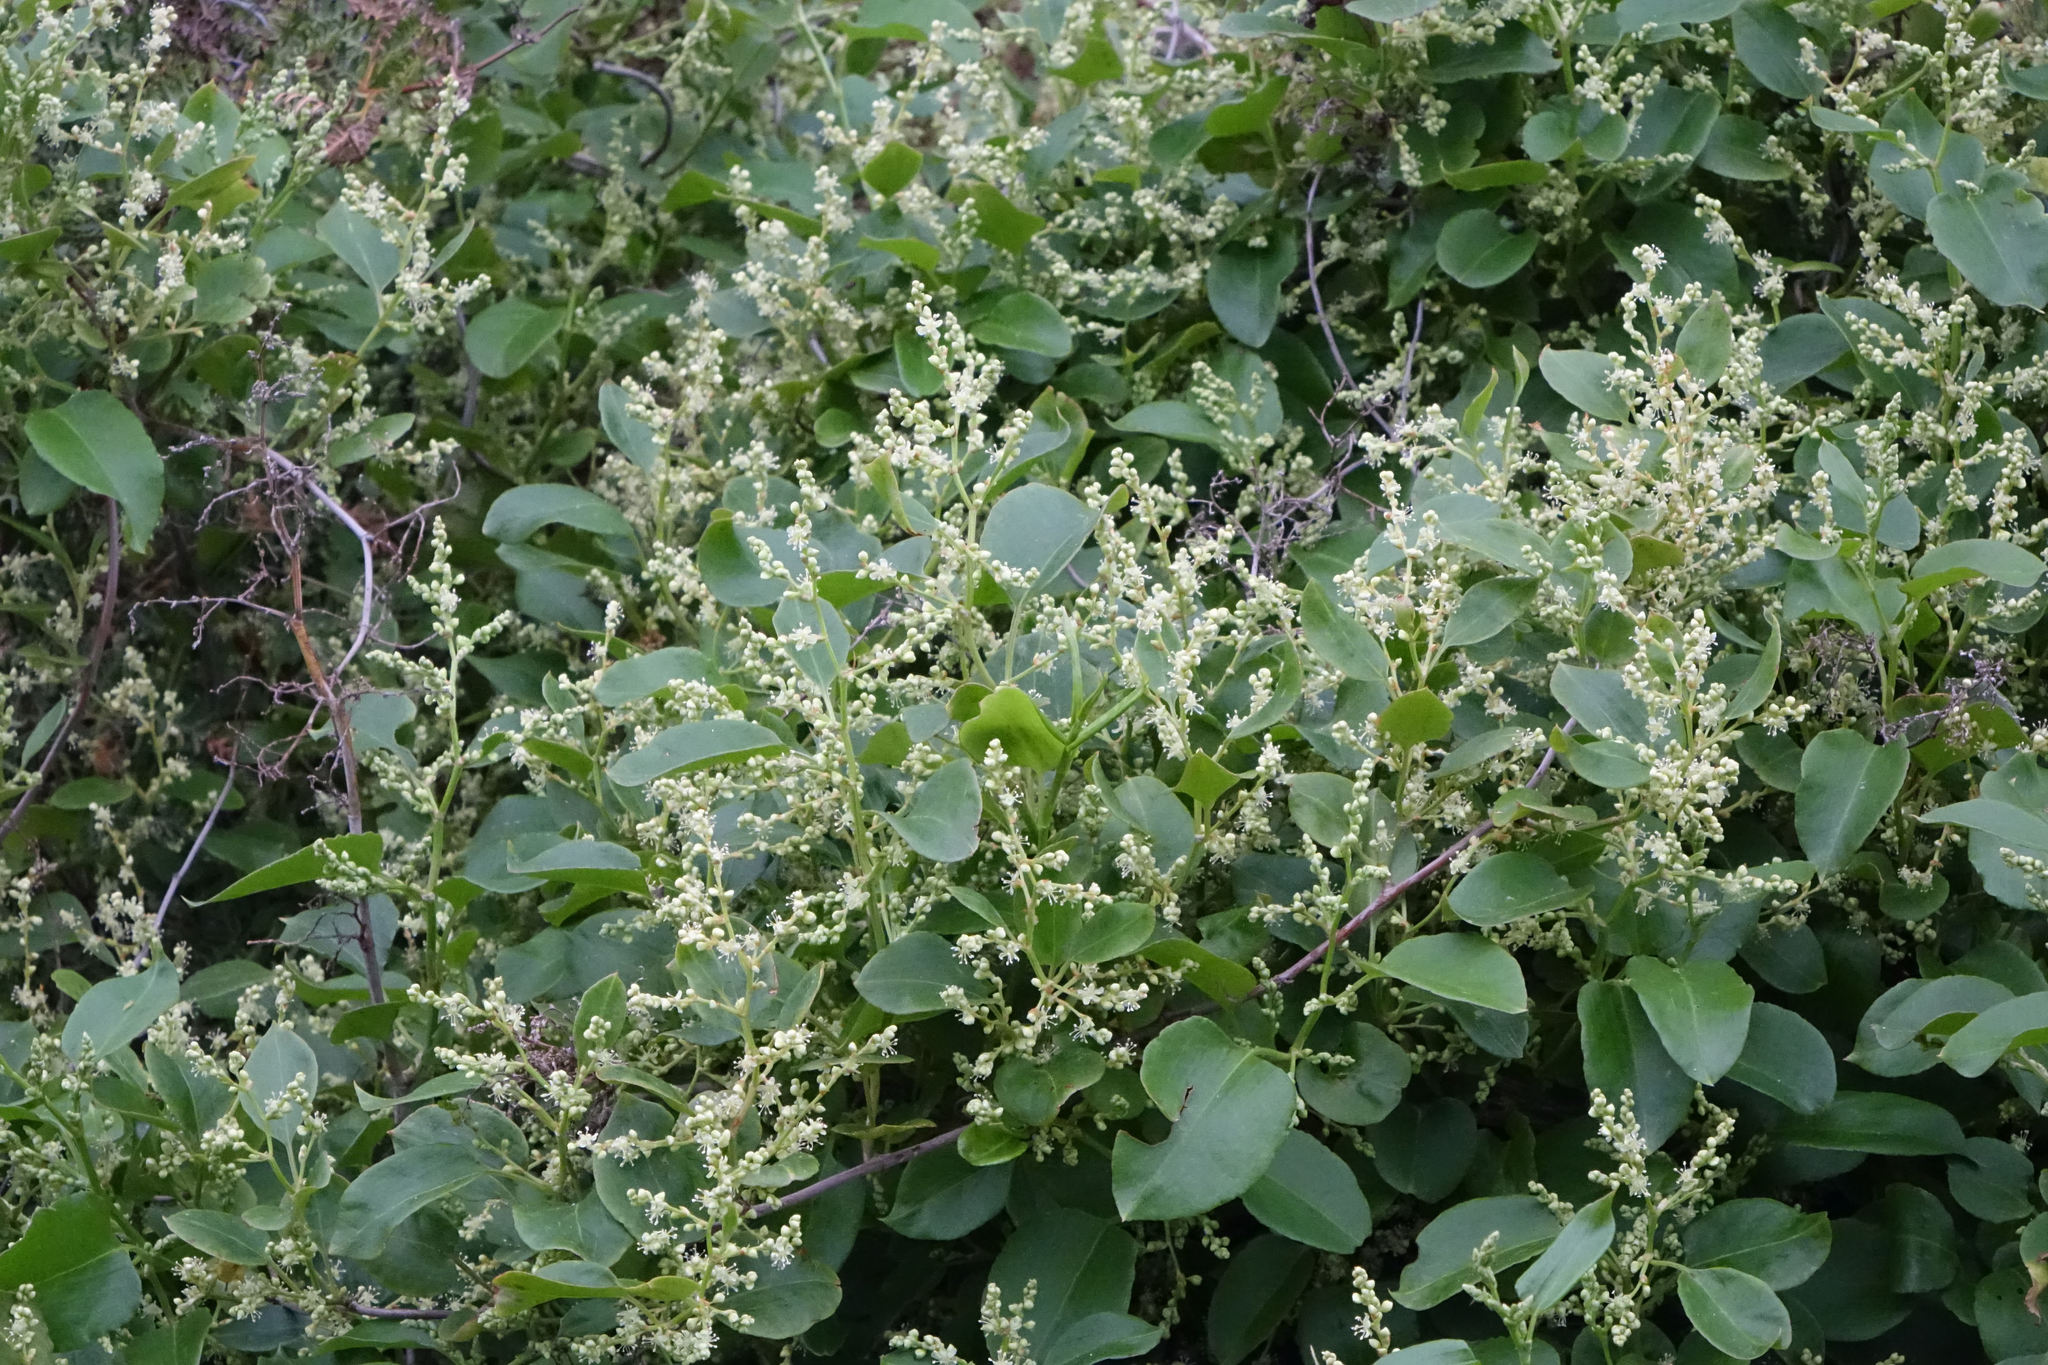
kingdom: Plantae
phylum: Tracheophyta
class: Magnoliopsida
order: Caryophyllales
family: Polygonaceae
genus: Muehlenbeckia
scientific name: Muehlenbeckia australis
